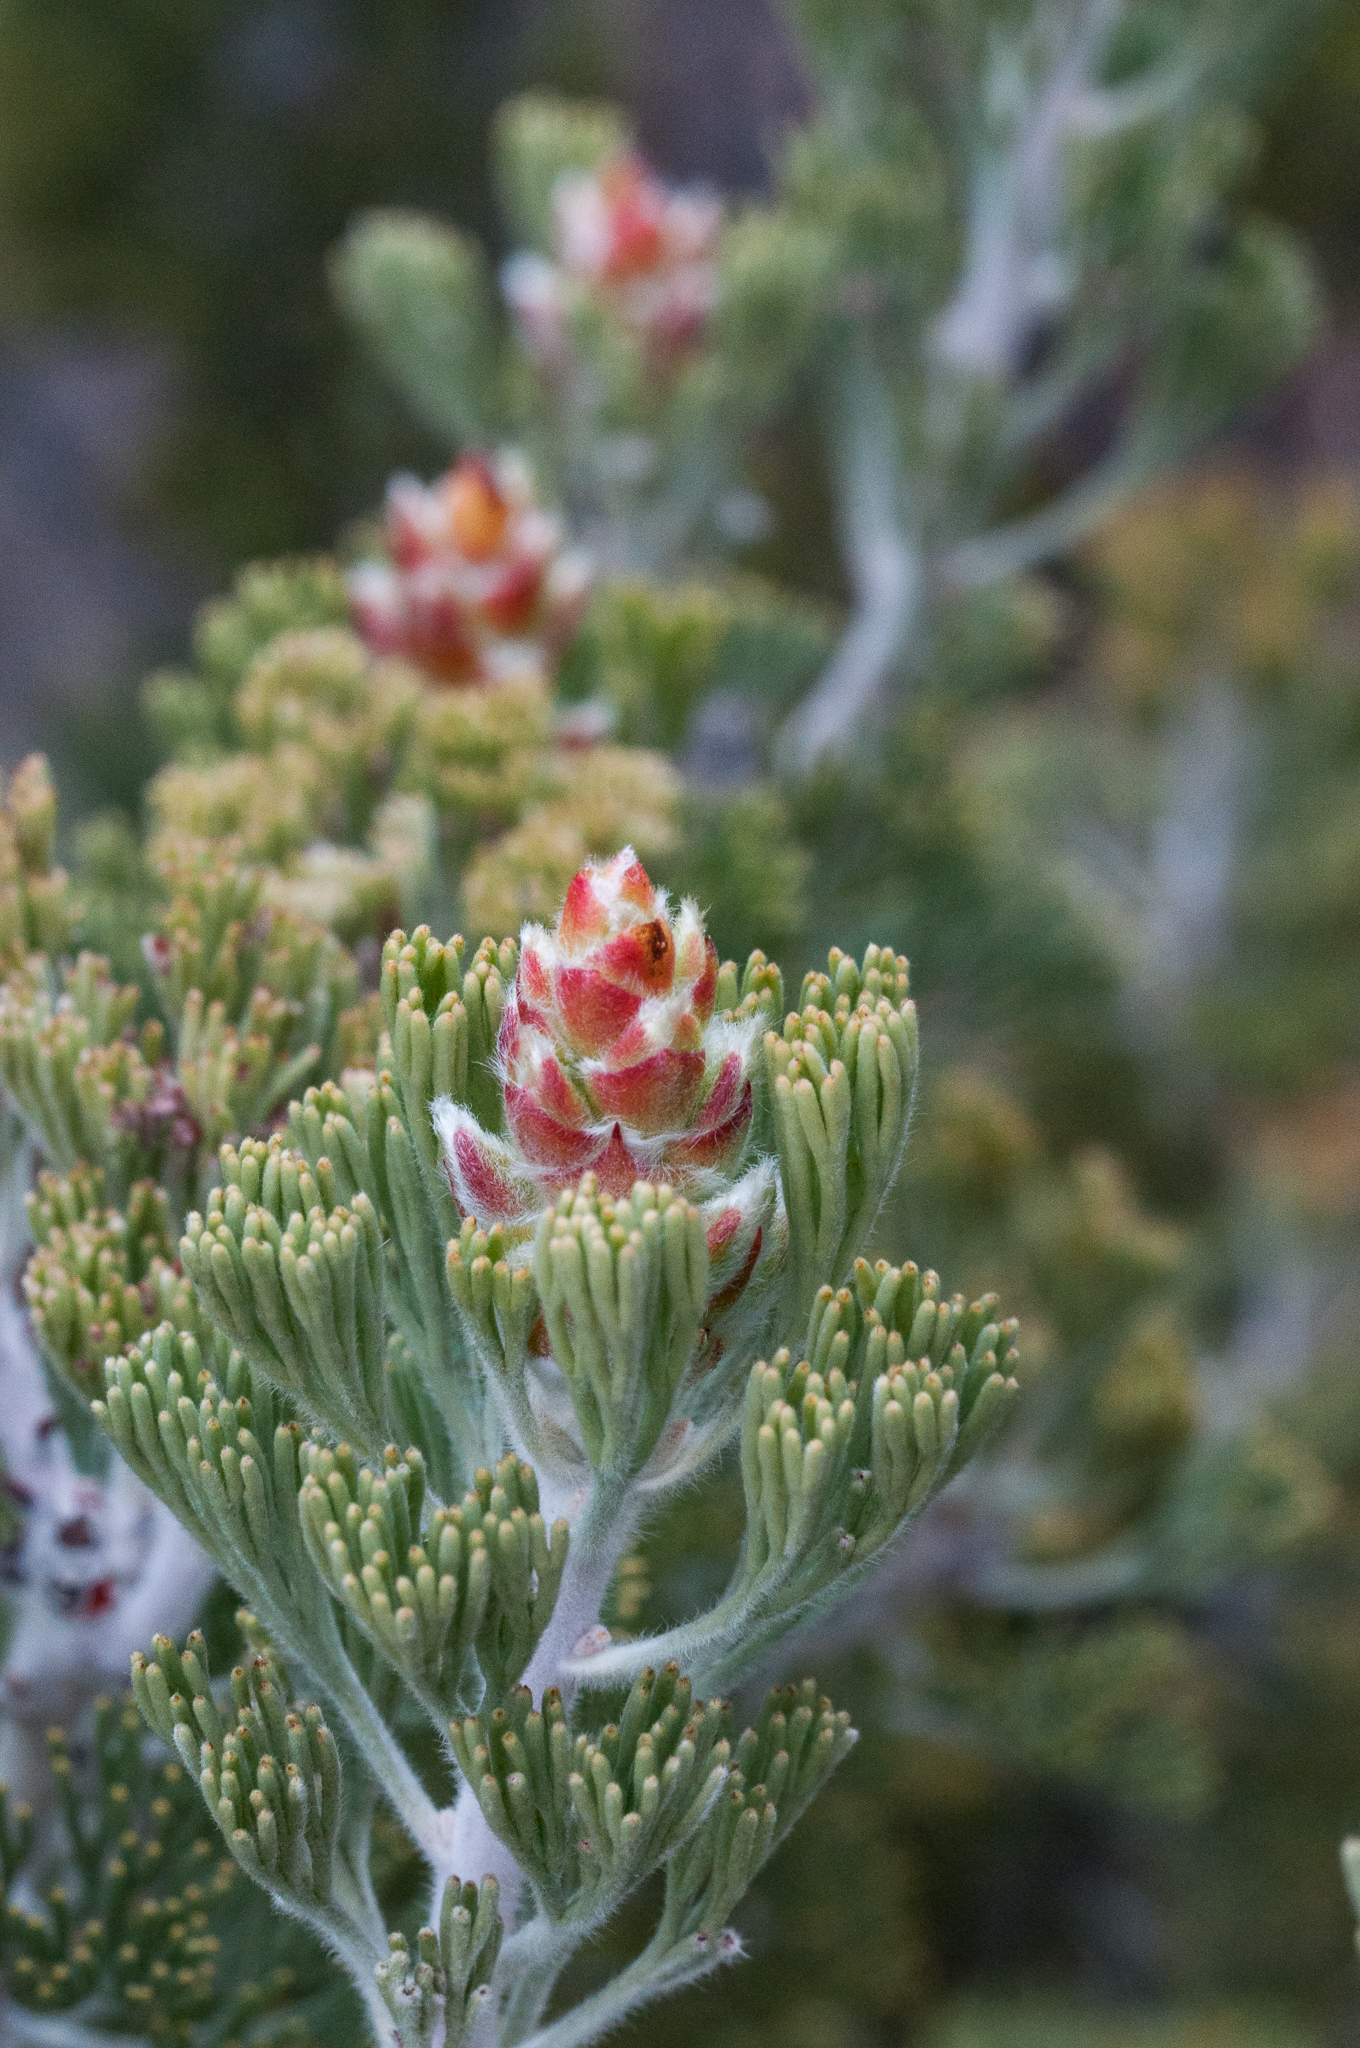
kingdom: Plantae
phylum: Tracheophyta
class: Magnoliopsida
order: Proteales
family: Proteaceae
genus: Paranomus
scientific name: Paranomus tomentosus
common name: Hairy-leaf tree sceptre
